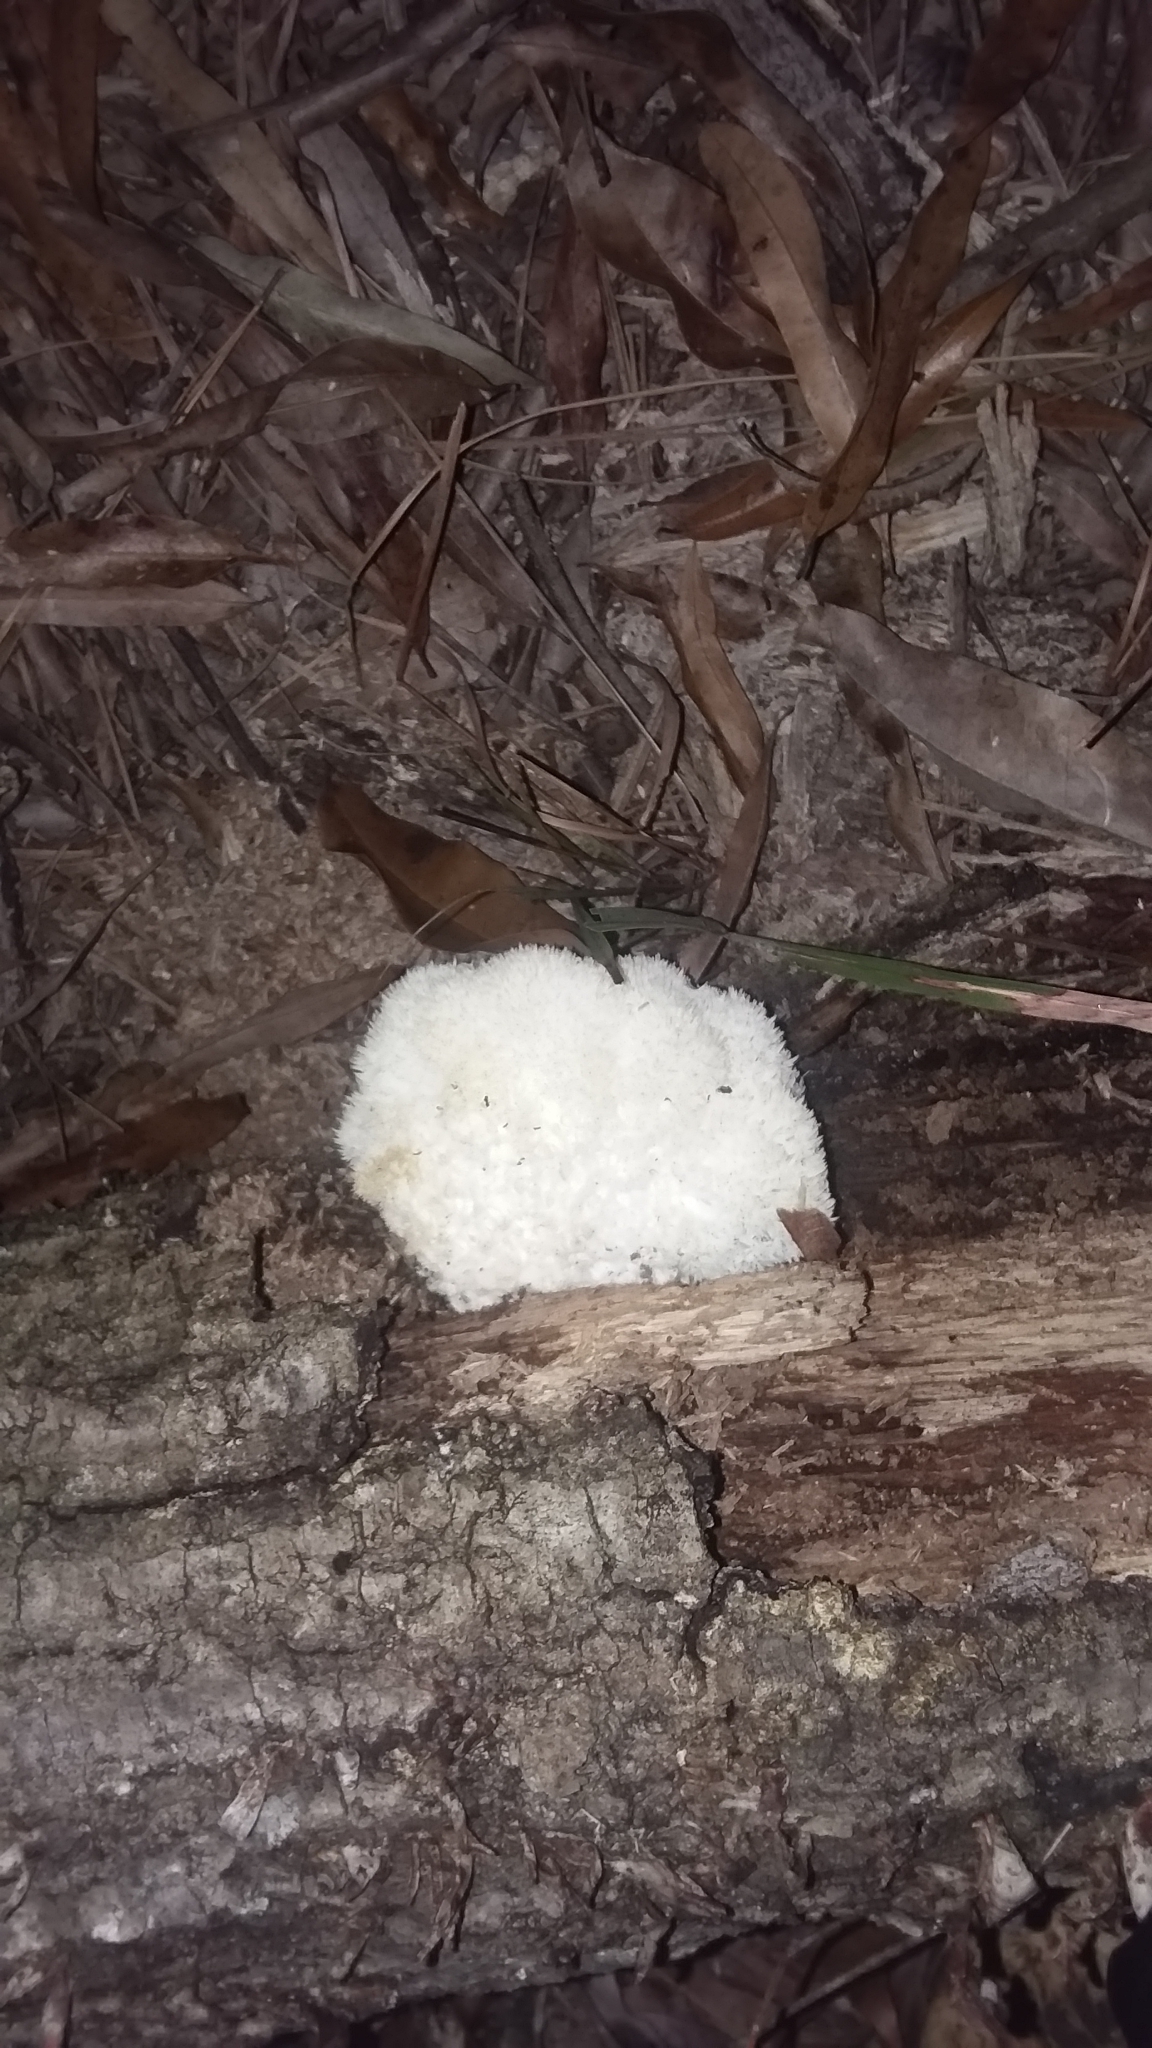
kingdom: Fungi
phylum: Basidiomycota
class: Agaricomycetes
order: Russulales
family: Hericiaceae
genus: Hericium
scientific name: Hericium erinaceus
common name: Bearded tooth
